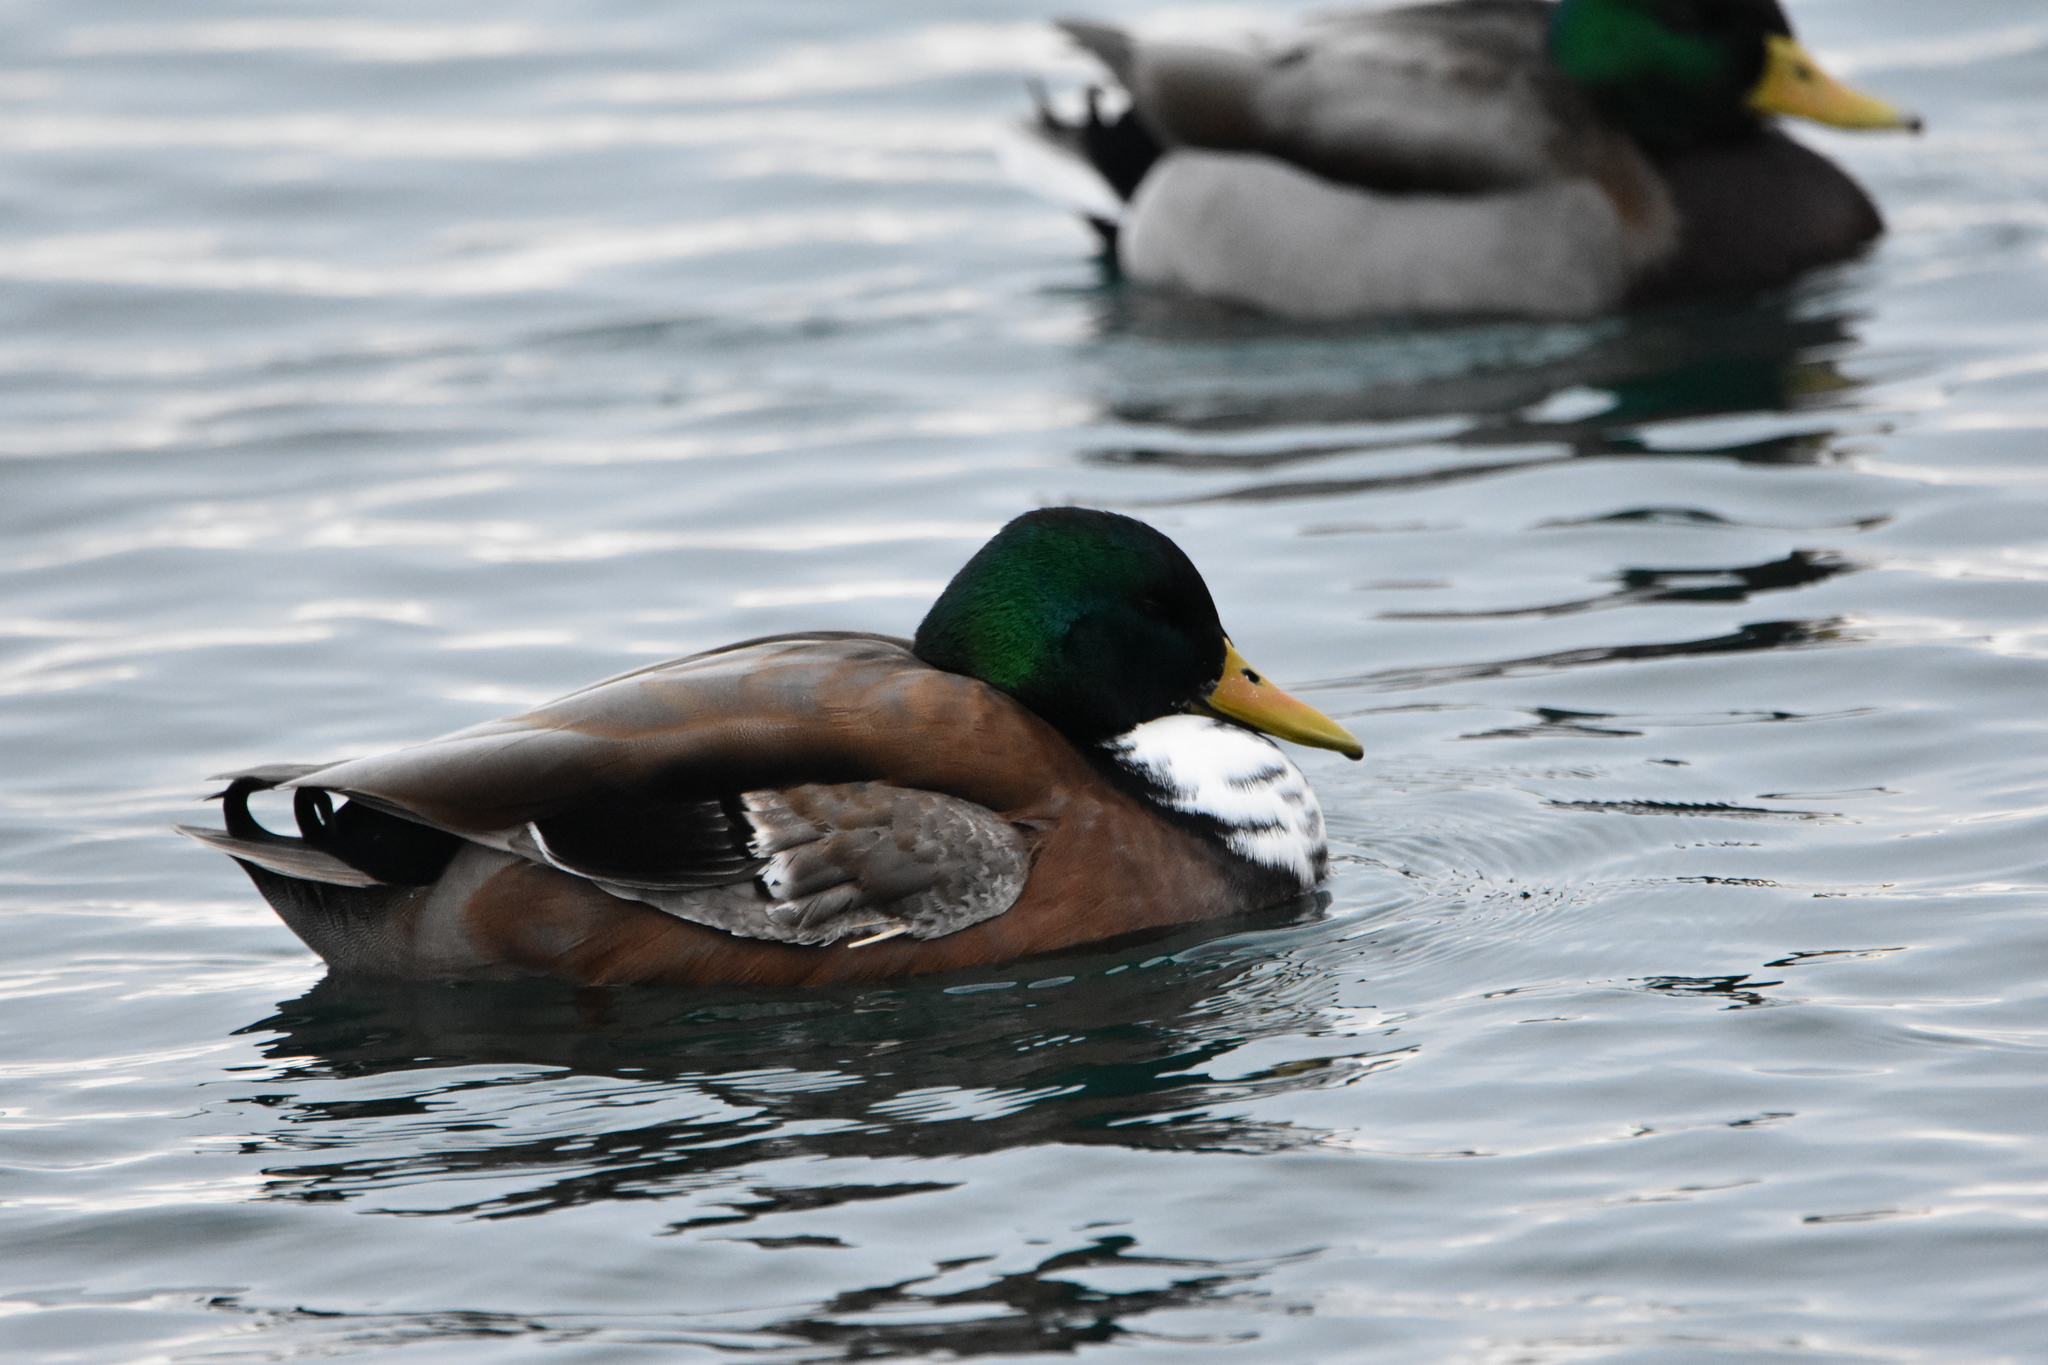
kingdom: Animalia
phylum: Chordata
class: Aves
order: Anseriformes
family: Anatidae
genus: Anas
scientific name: Anas platyrhynchos
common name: Mallard
